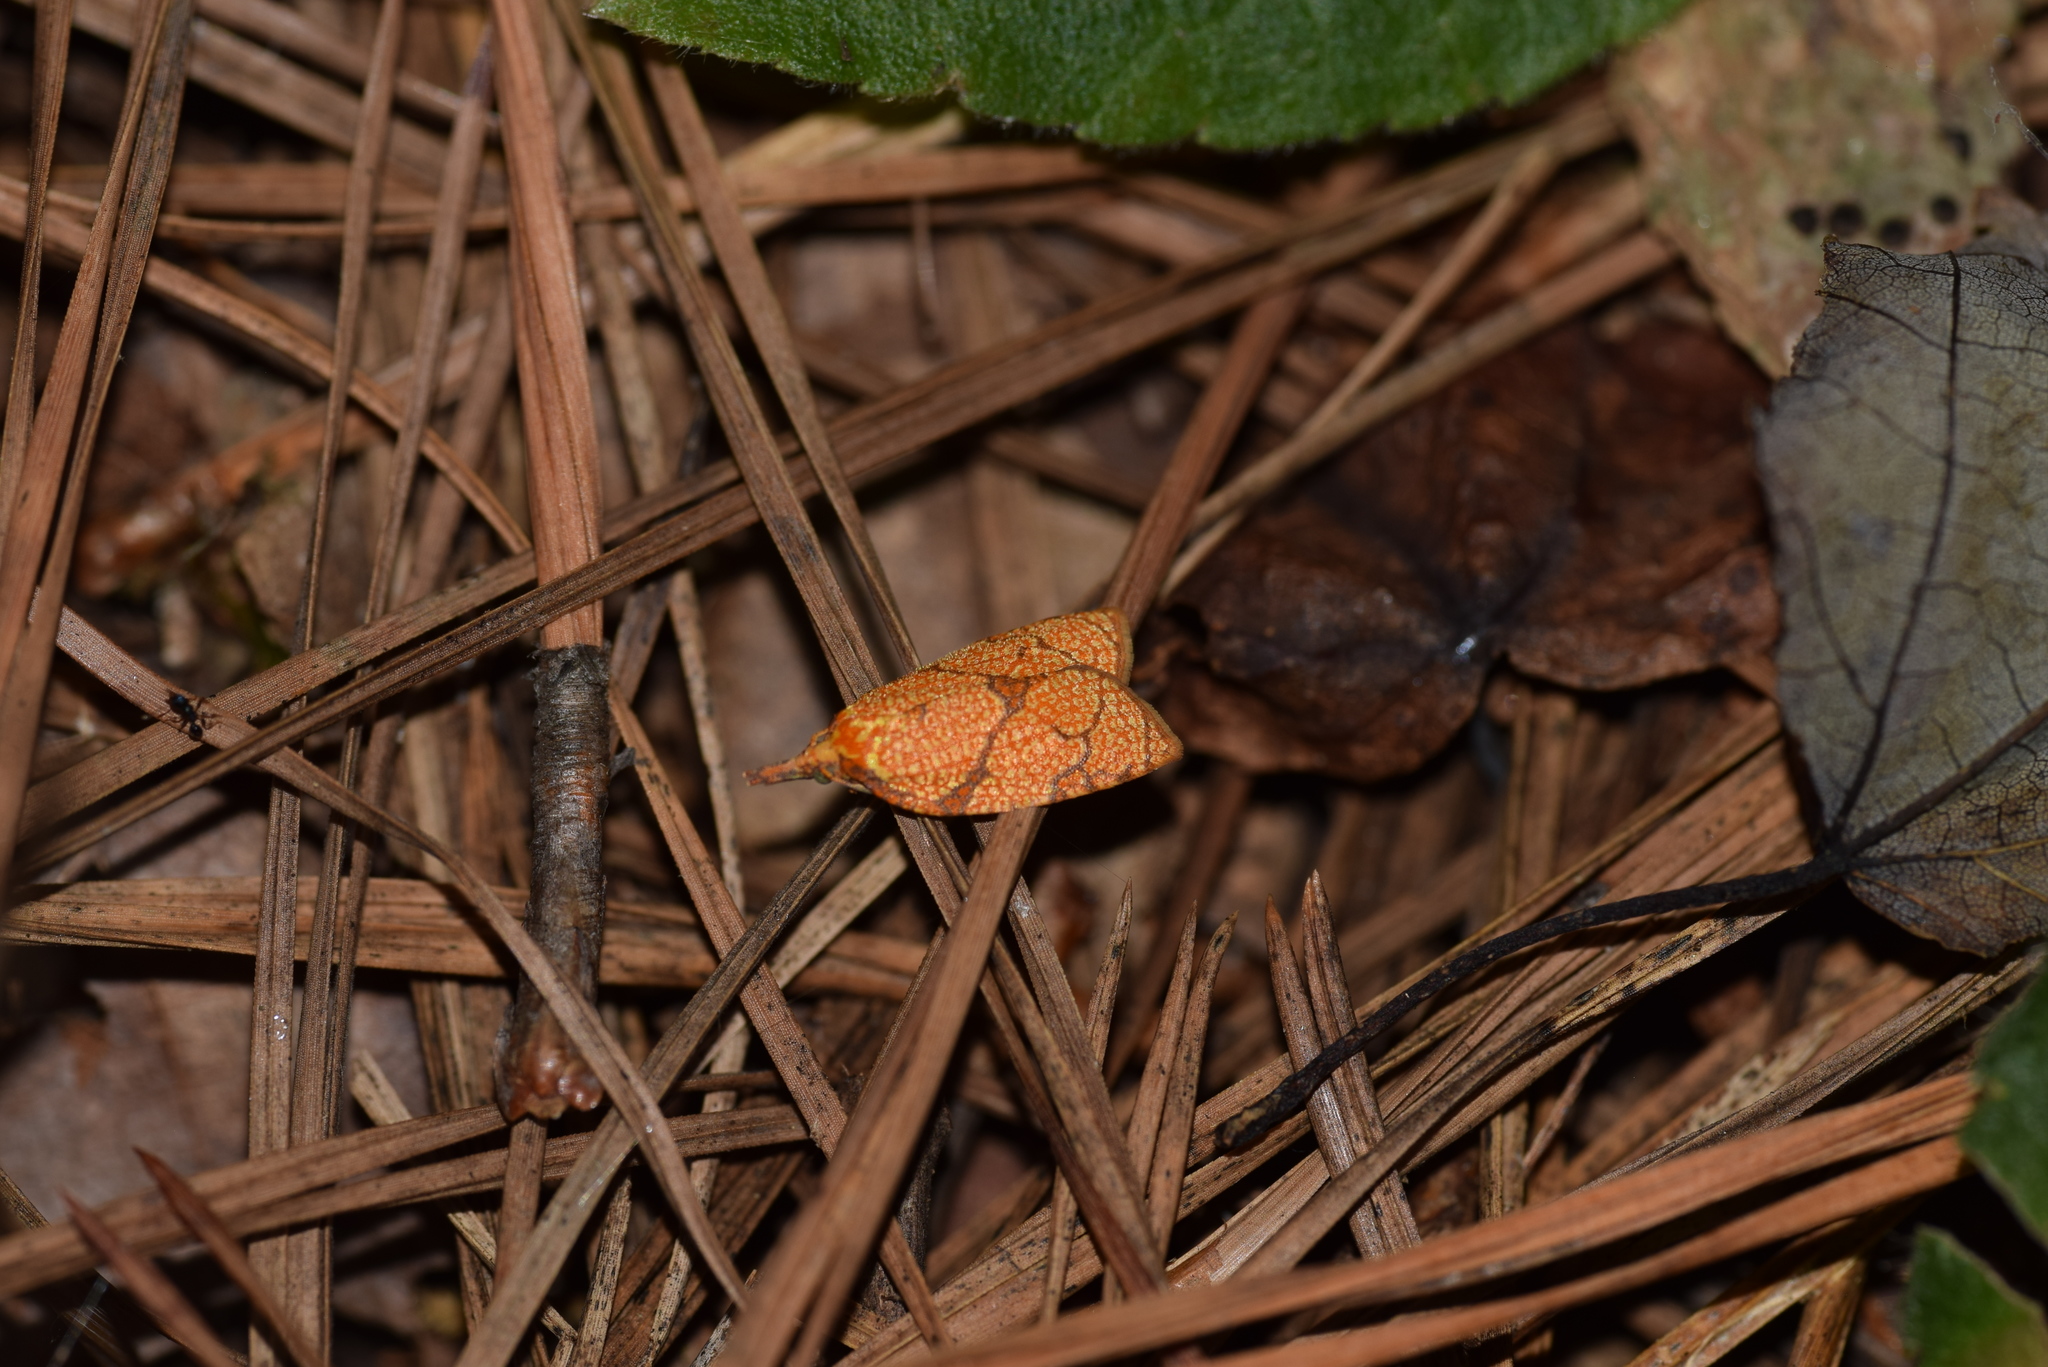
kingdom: Animalia
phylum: Arthropoda
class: Insecta
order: Lepidoptera
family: Tortricidae
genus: Cenopis
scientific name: Cenopis reticulatana
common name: Reticulated fruitworm moth
